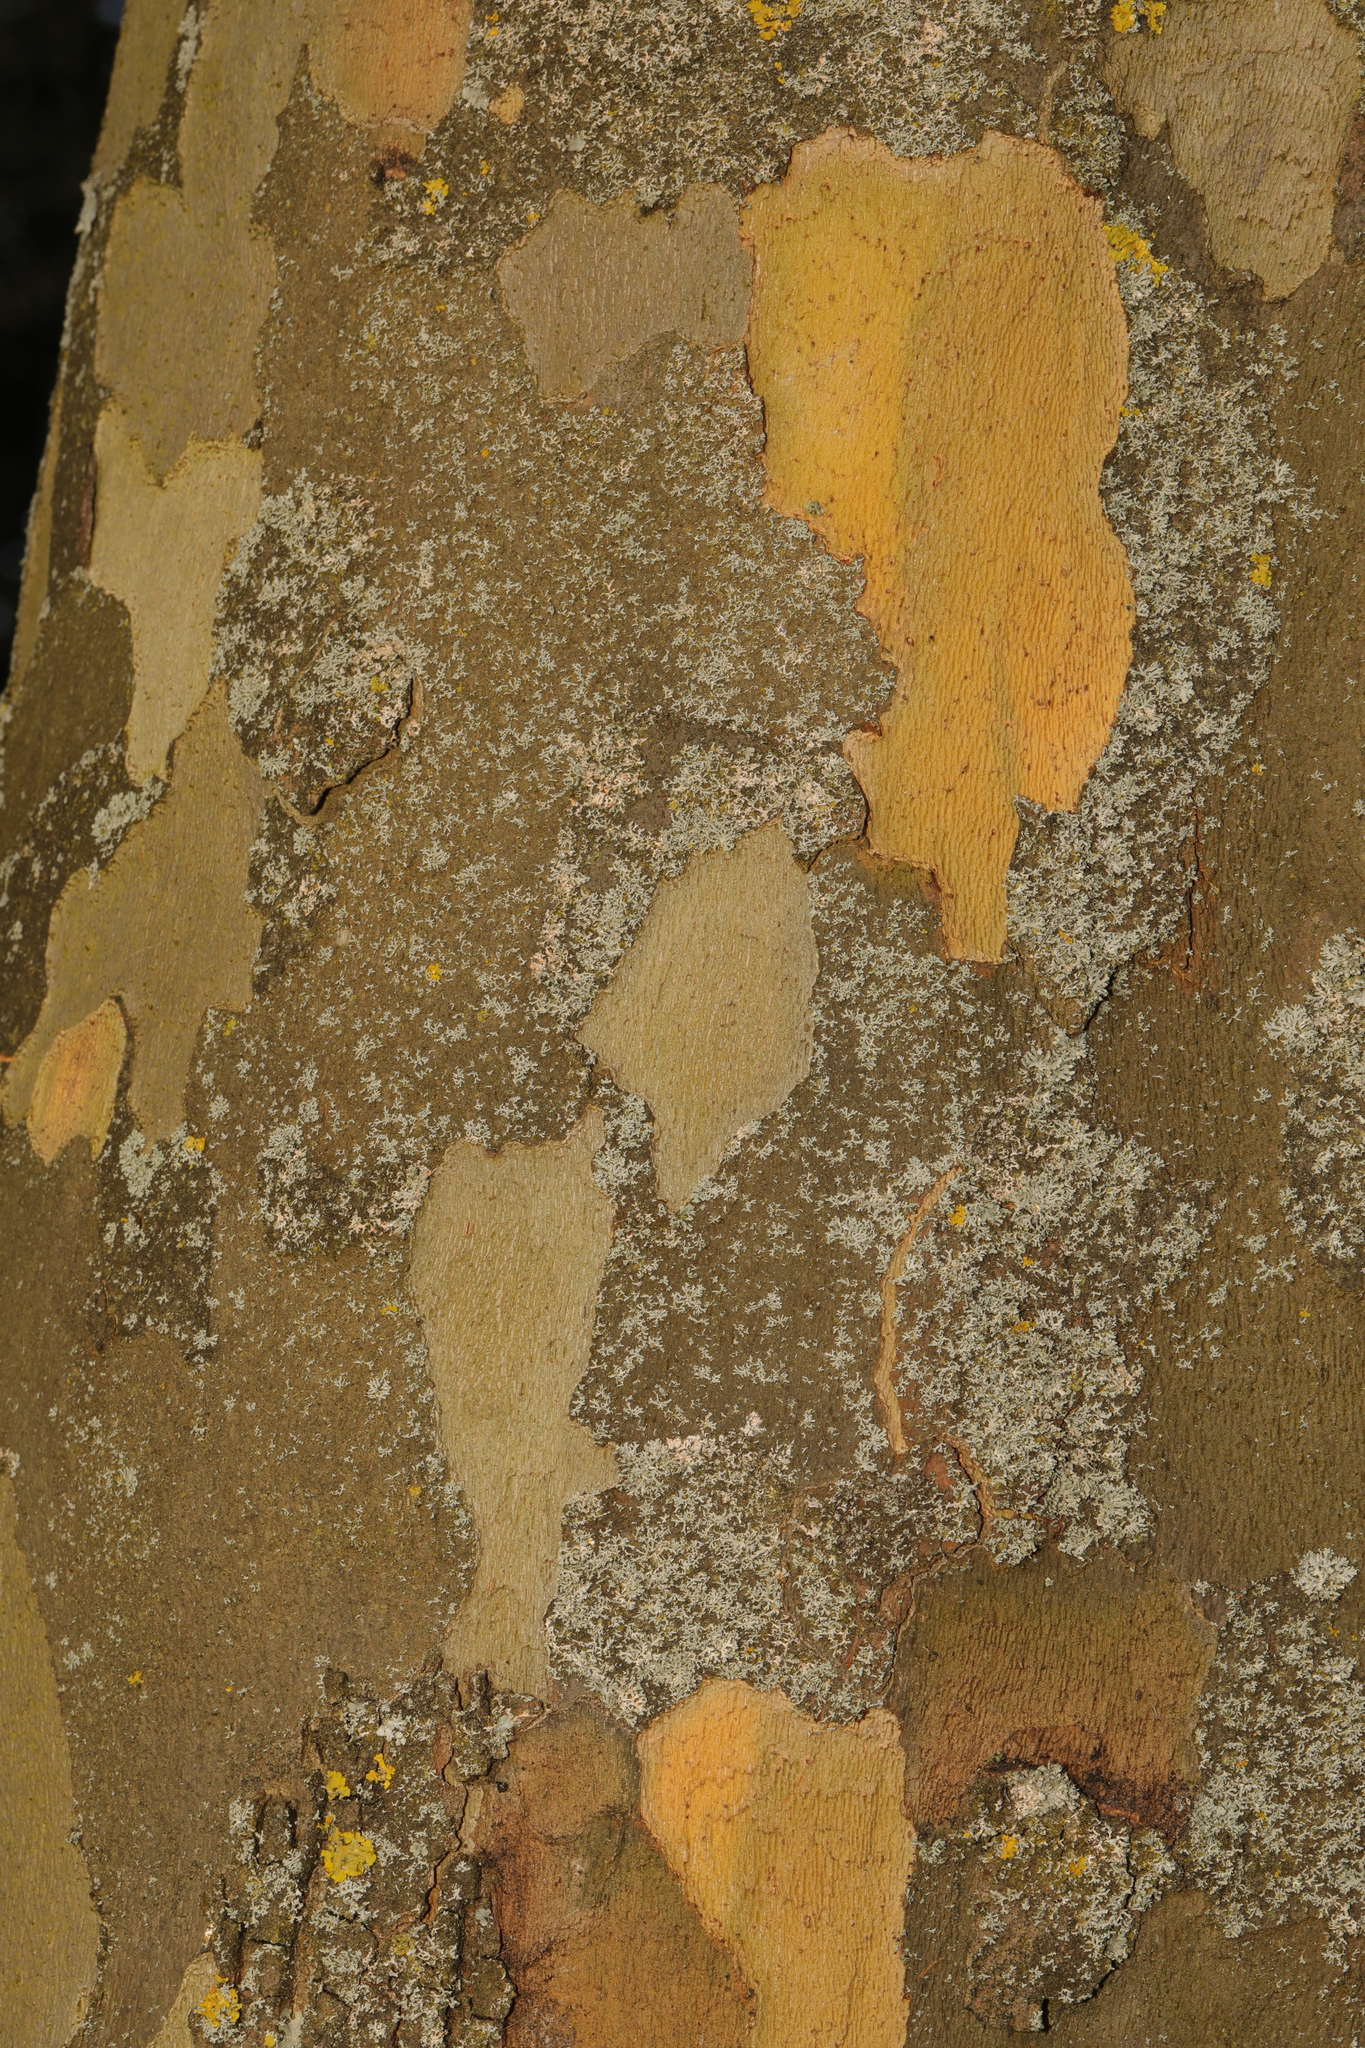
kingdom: Plantae
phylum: Tracheophyta
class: Magnoliopsida
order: Proteales
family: Platanaceae
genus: Platanus
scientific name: Platanus hispanica
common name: London plane
